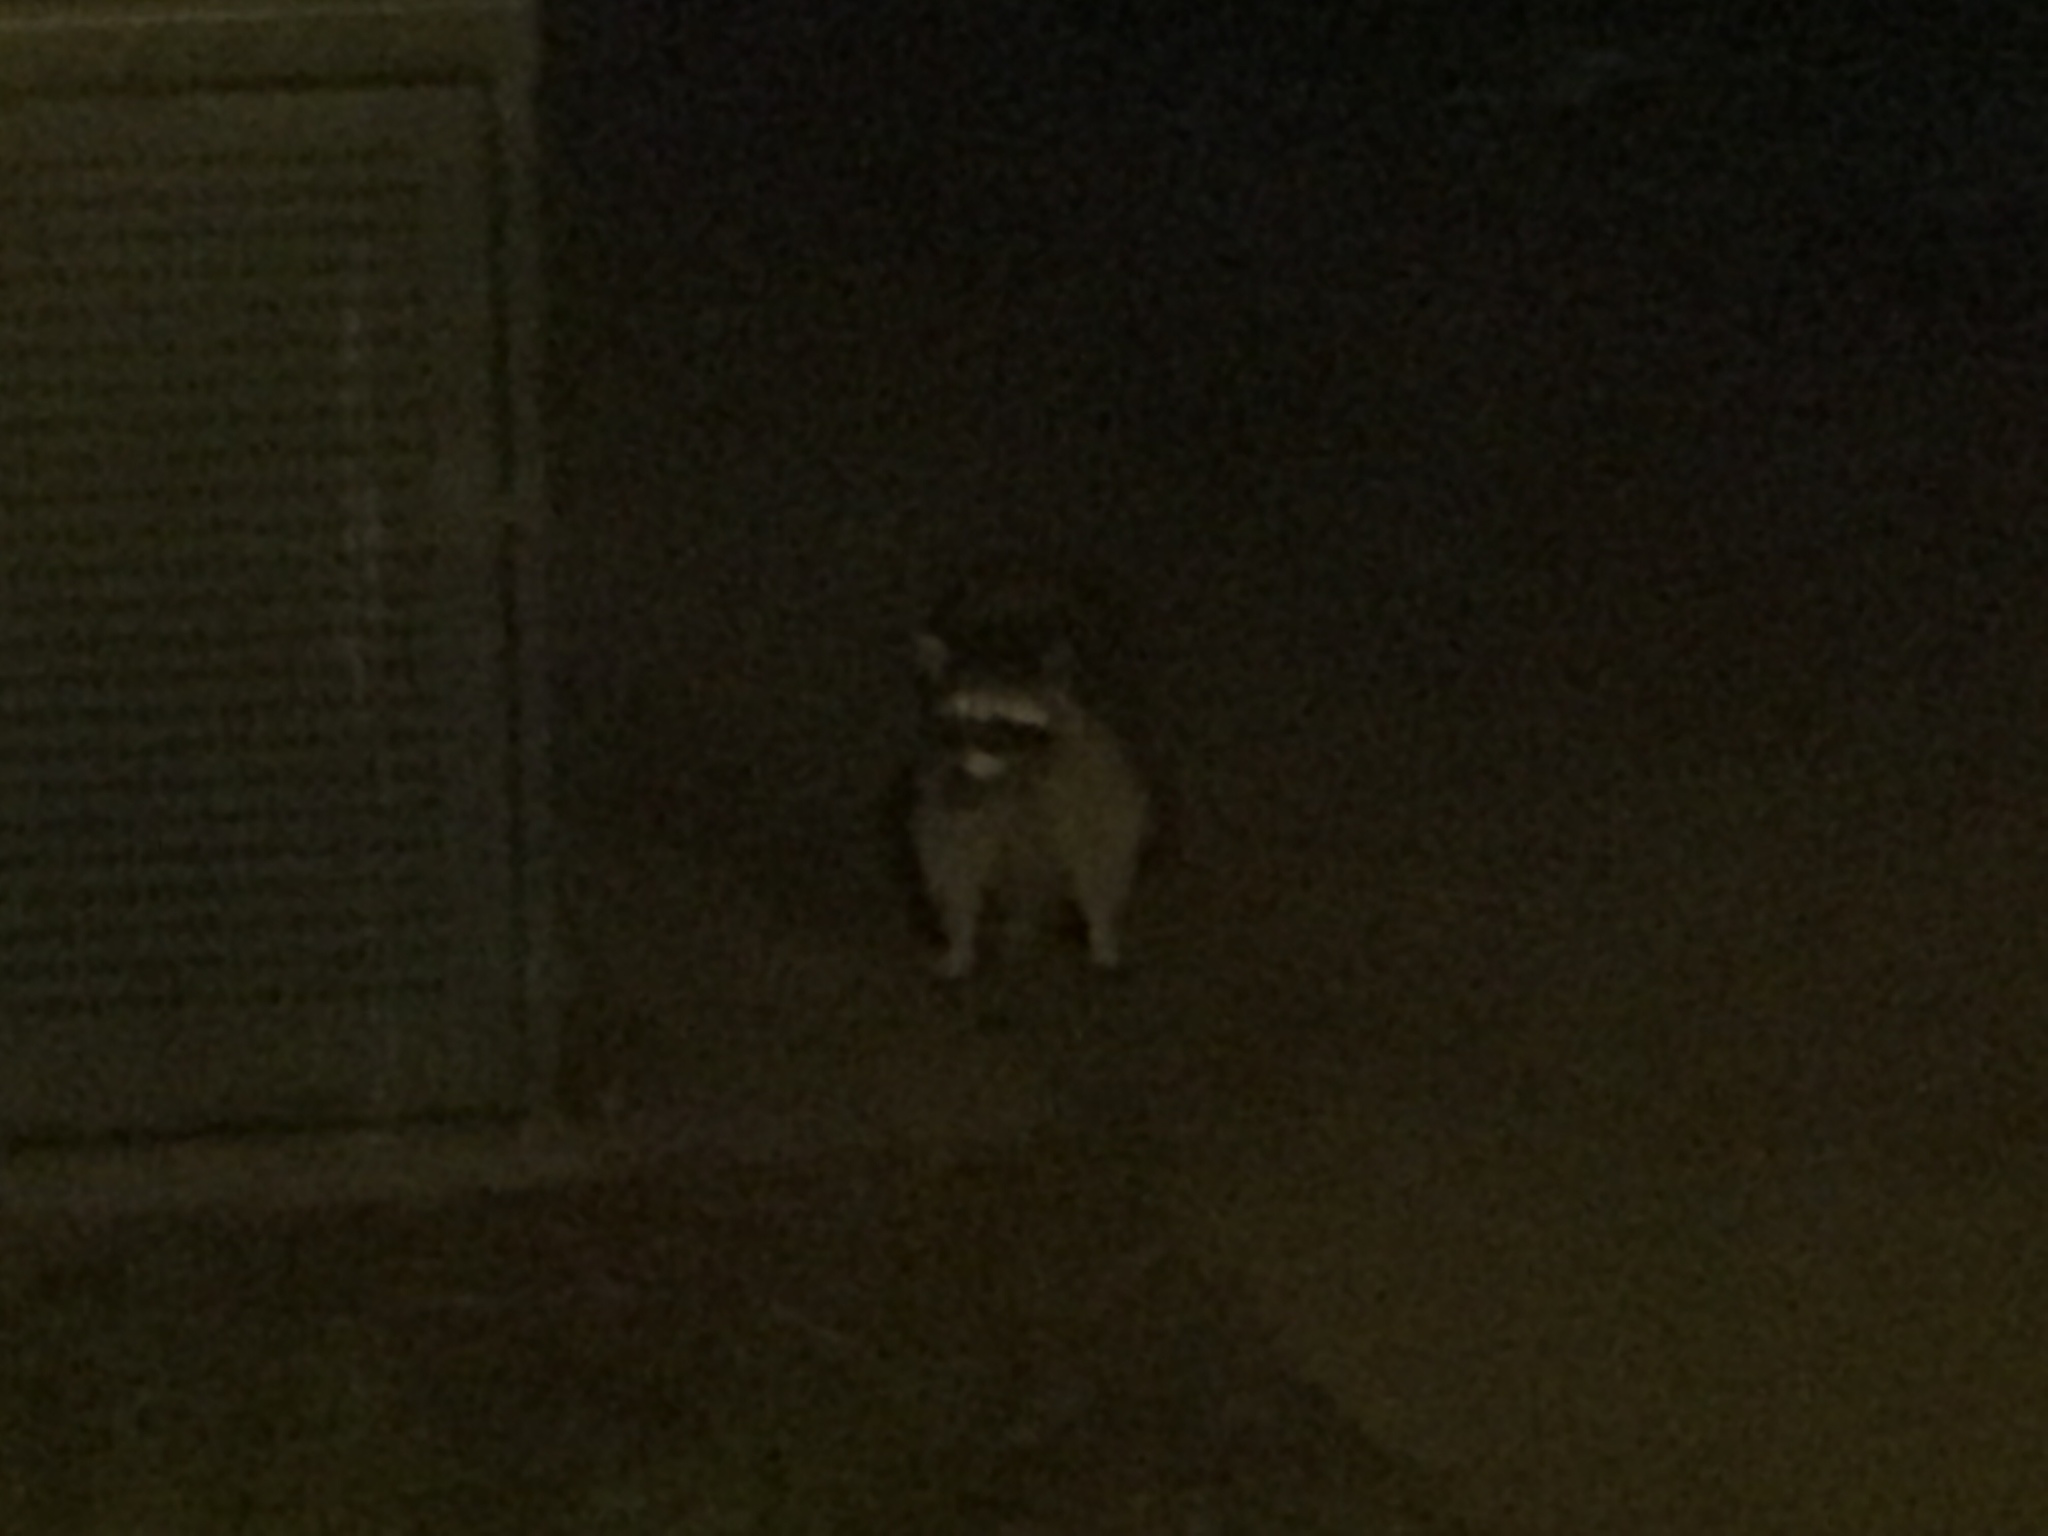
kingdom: Animalia
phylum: Chordata
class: Mammalia
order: Carnivora
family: Procyonidae
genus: Procyon
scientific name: Procyon lotor
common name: Raccoon
